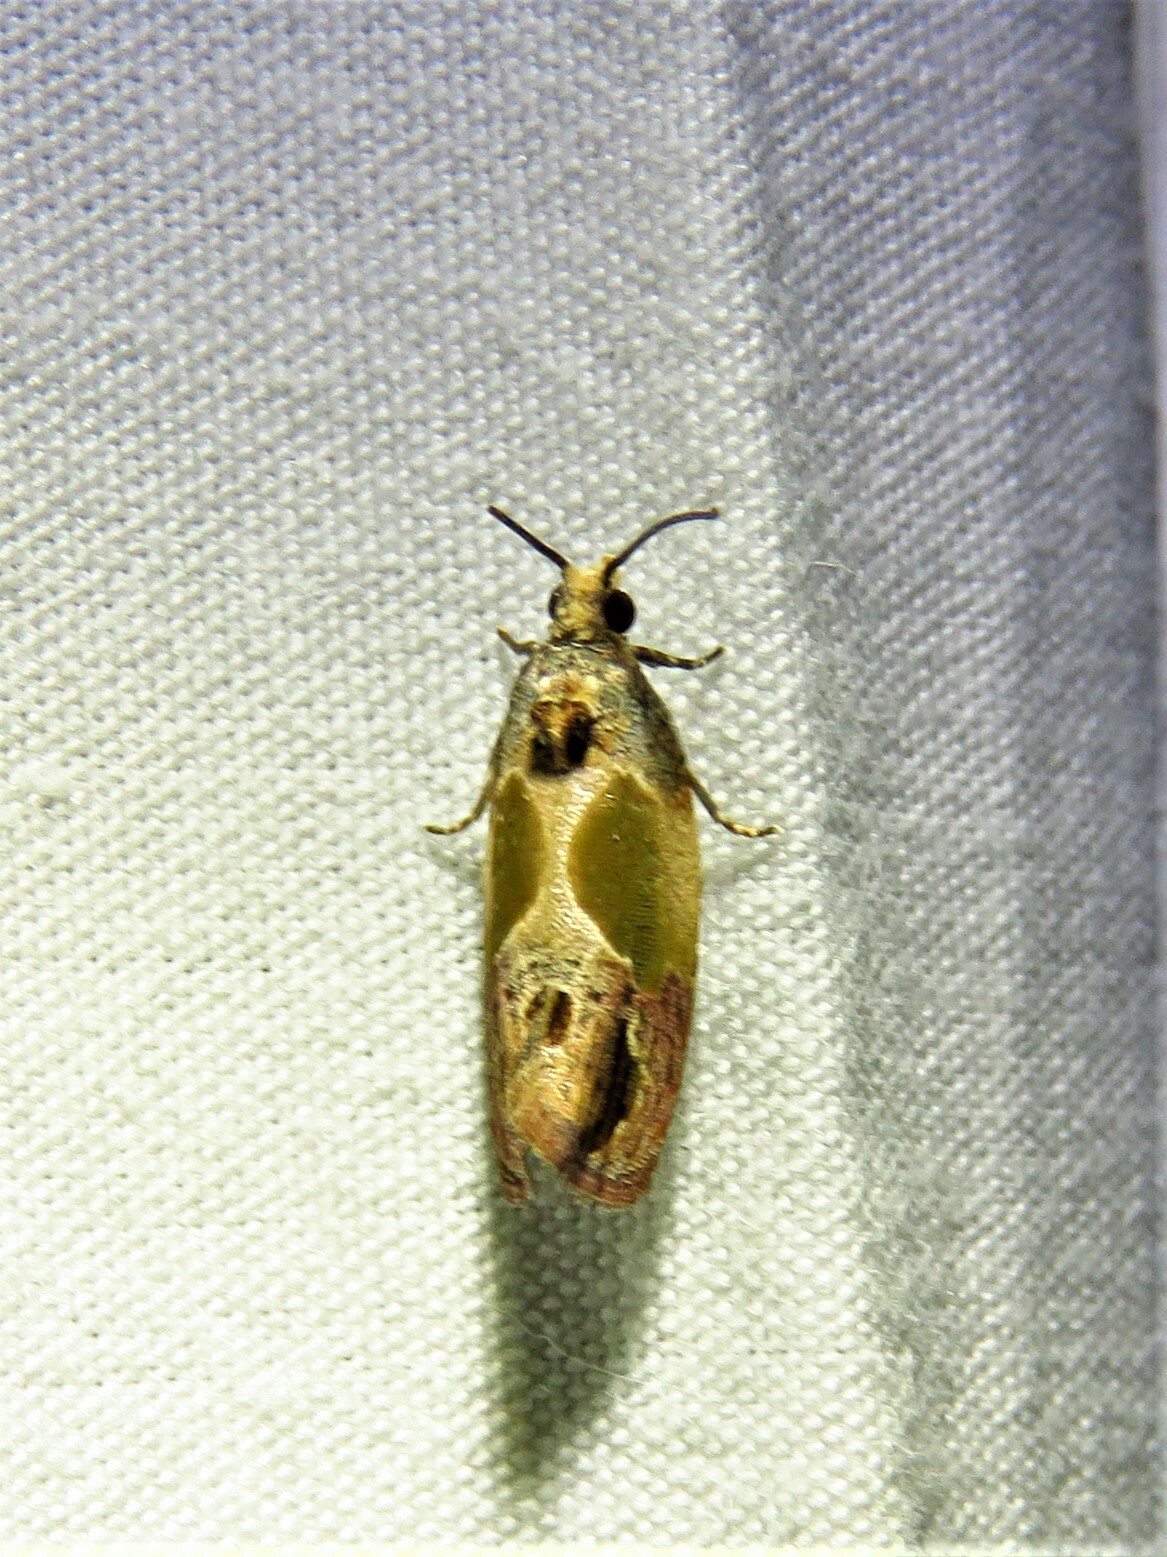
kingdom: Animalia
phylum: Arthropoda
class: Insecta
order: Lepidoptera
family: Tortricidae
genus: Eumarozia
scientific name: Eumarozia malachitana
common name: Sculptured moth
